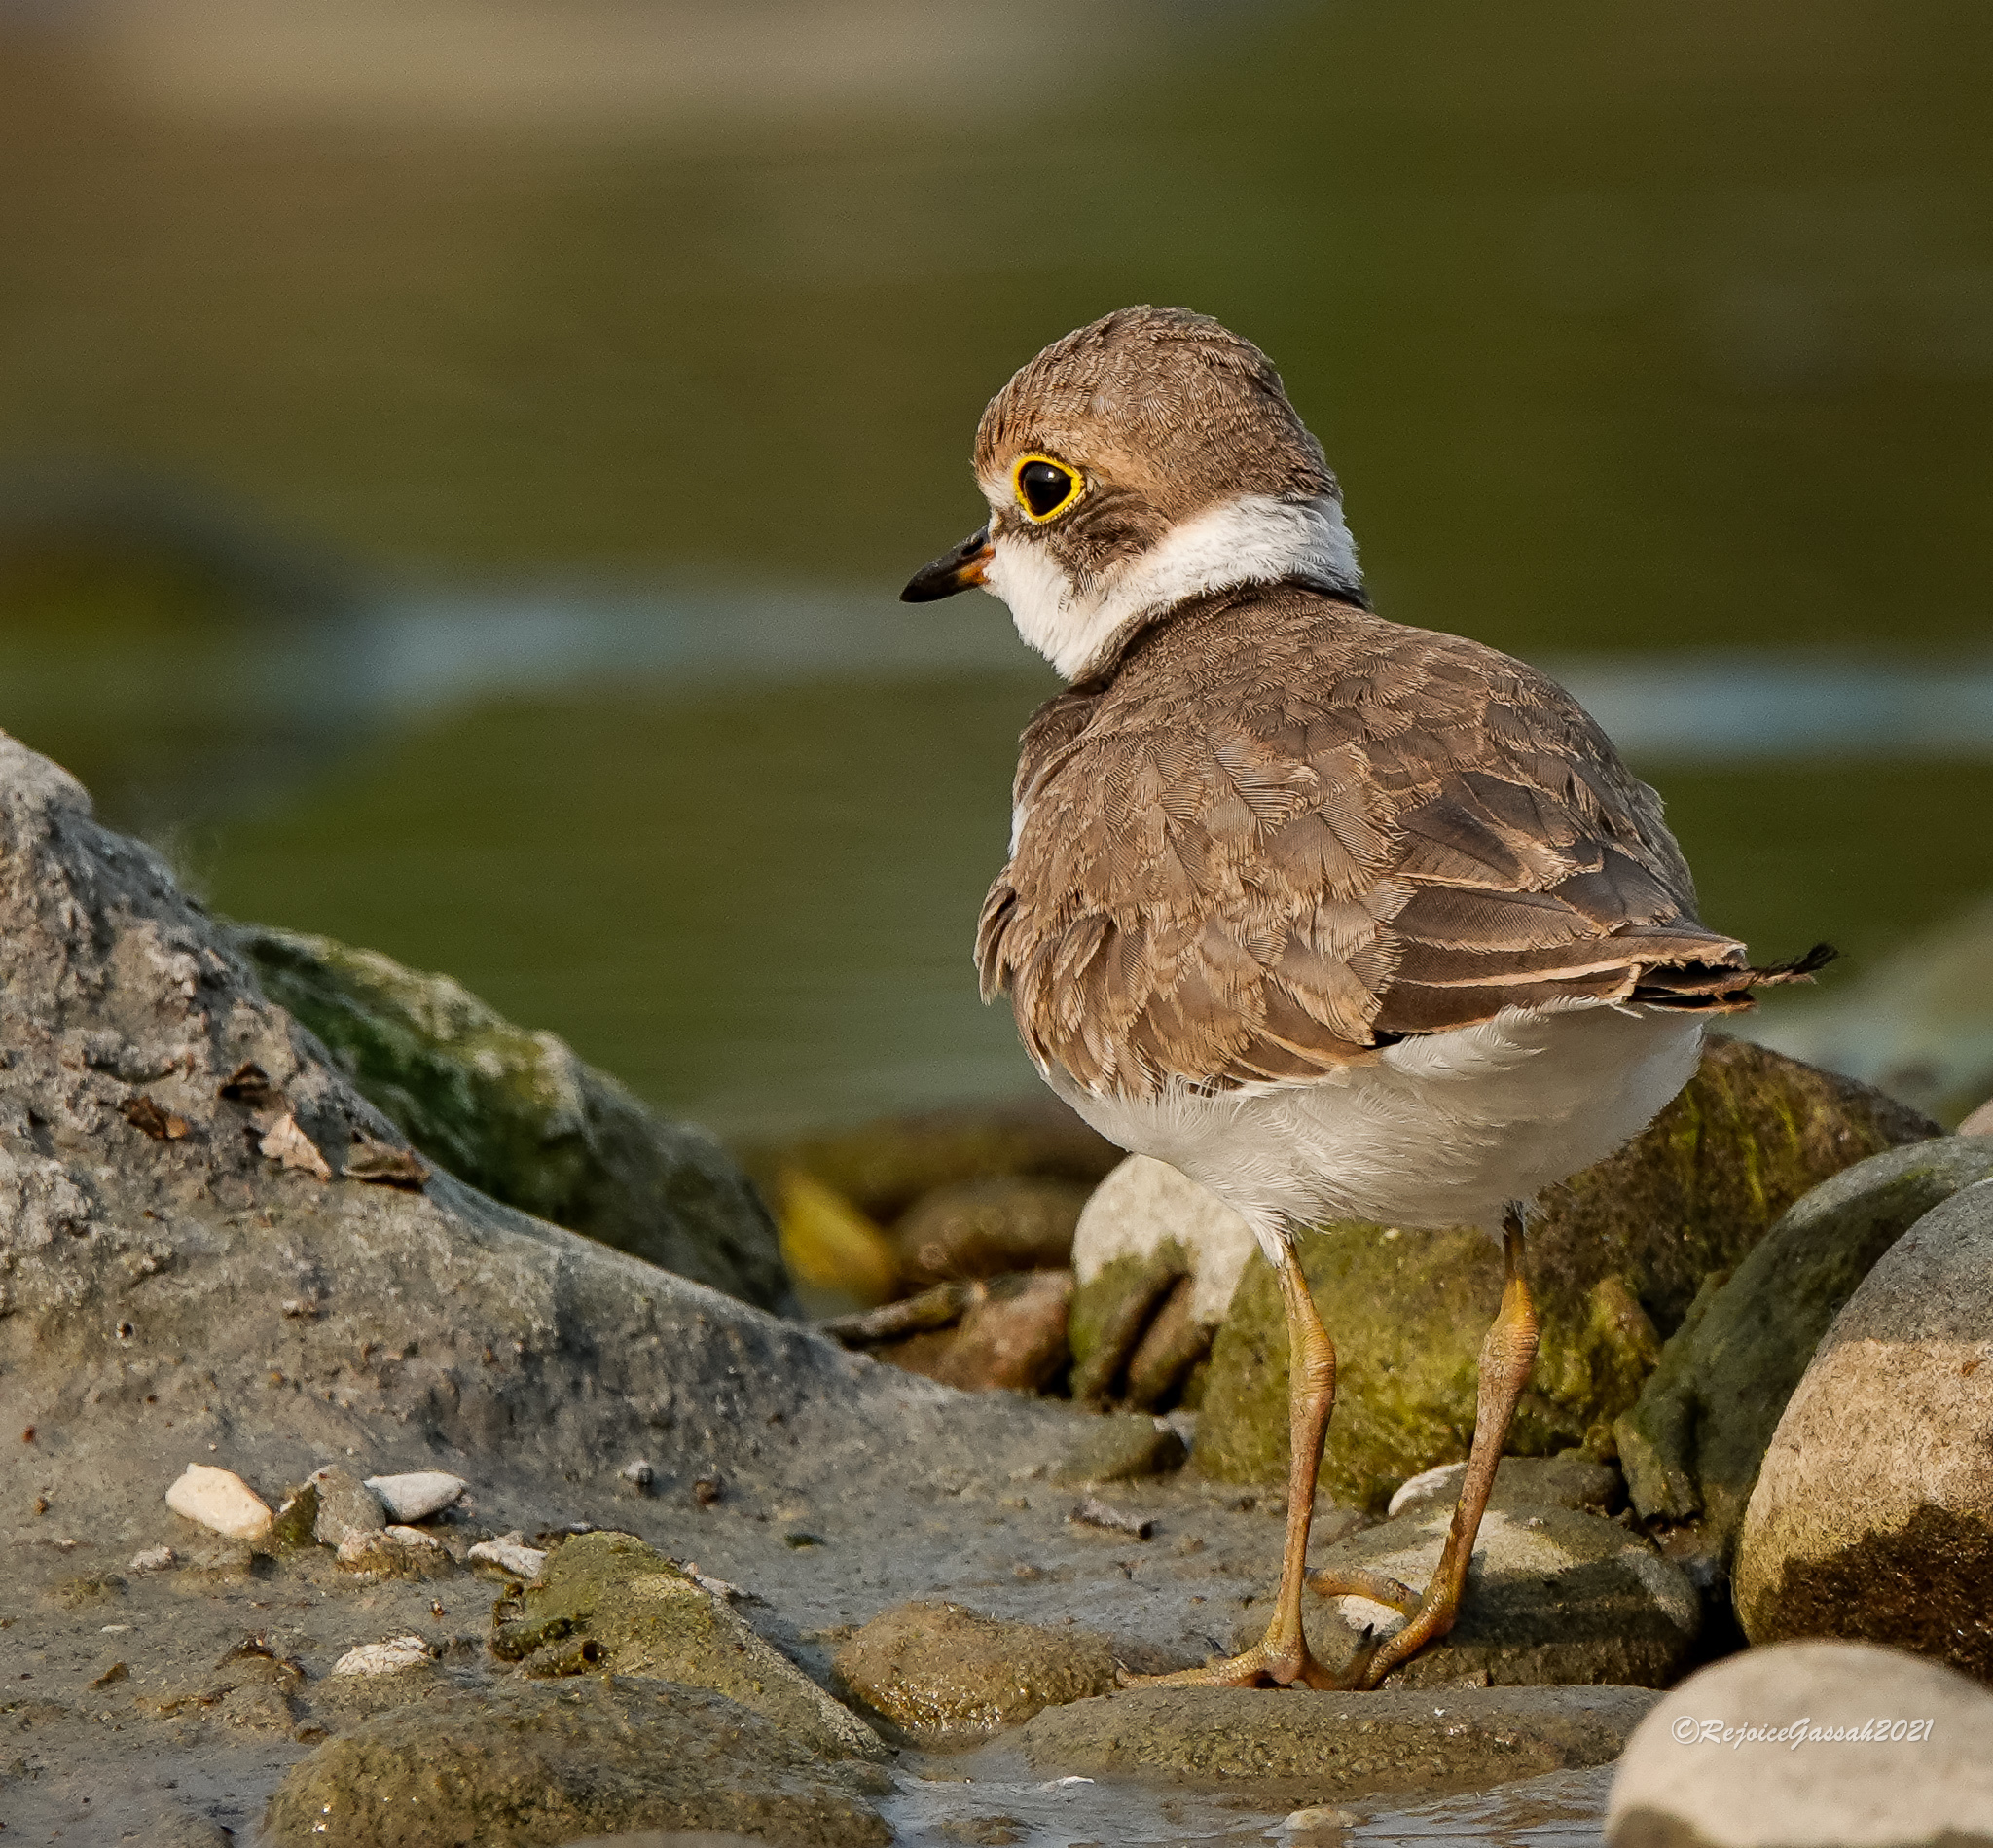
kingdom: Animalia
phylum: Chordata
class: Aves
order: Charadriiformes
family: Charadriidae
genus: Charadrius
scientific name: Charadrius dubius
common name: Little ringed plover
